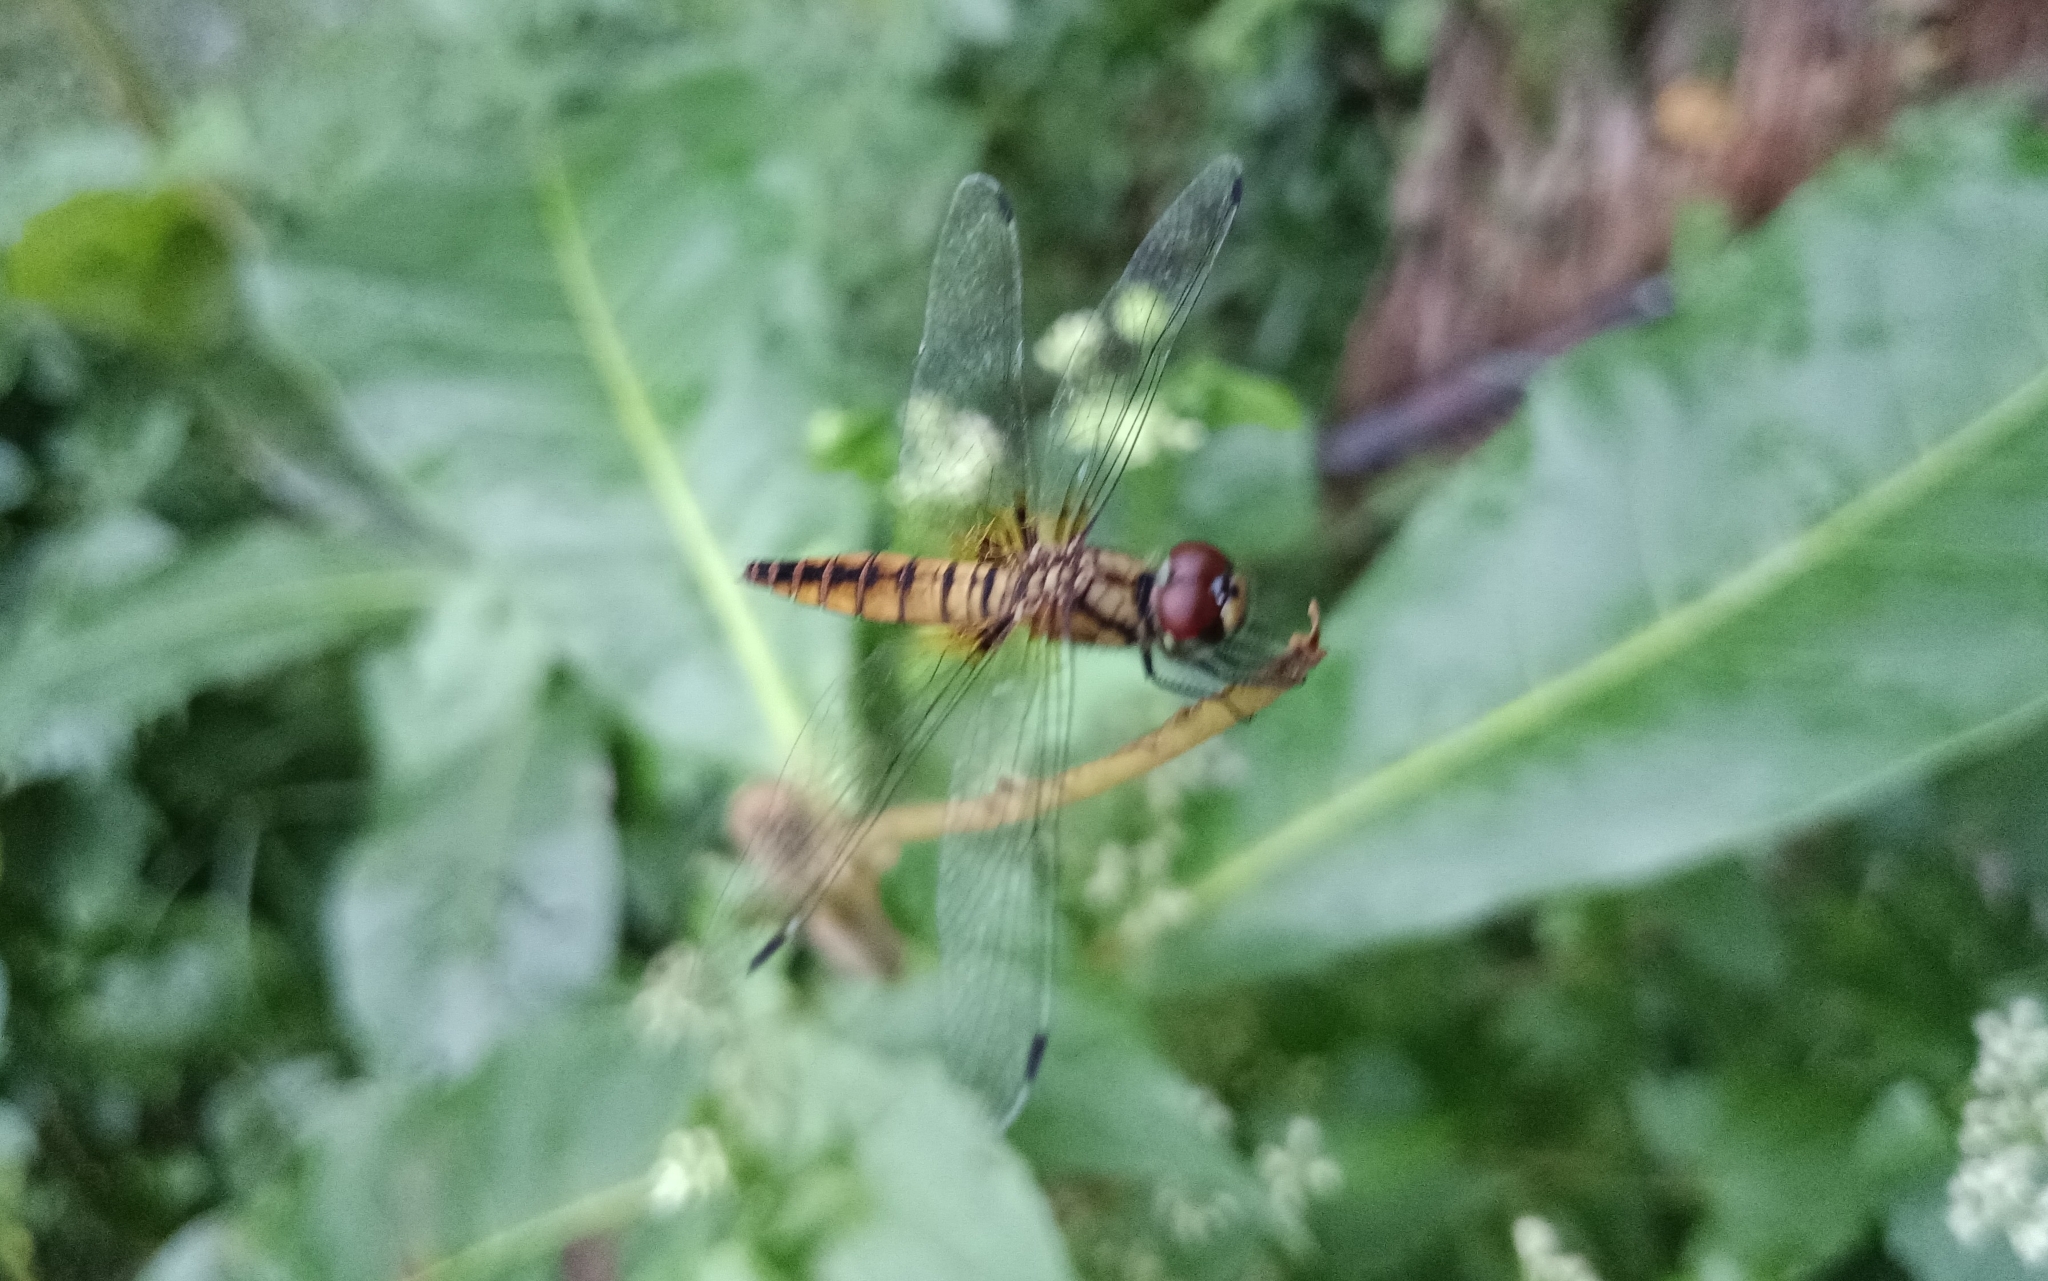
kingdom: Animalia
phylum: Arthropoda
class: Insecta
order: Odonata
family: Libellulidae
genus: Aethriamanta
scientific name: Aethriamanta brevipennis
